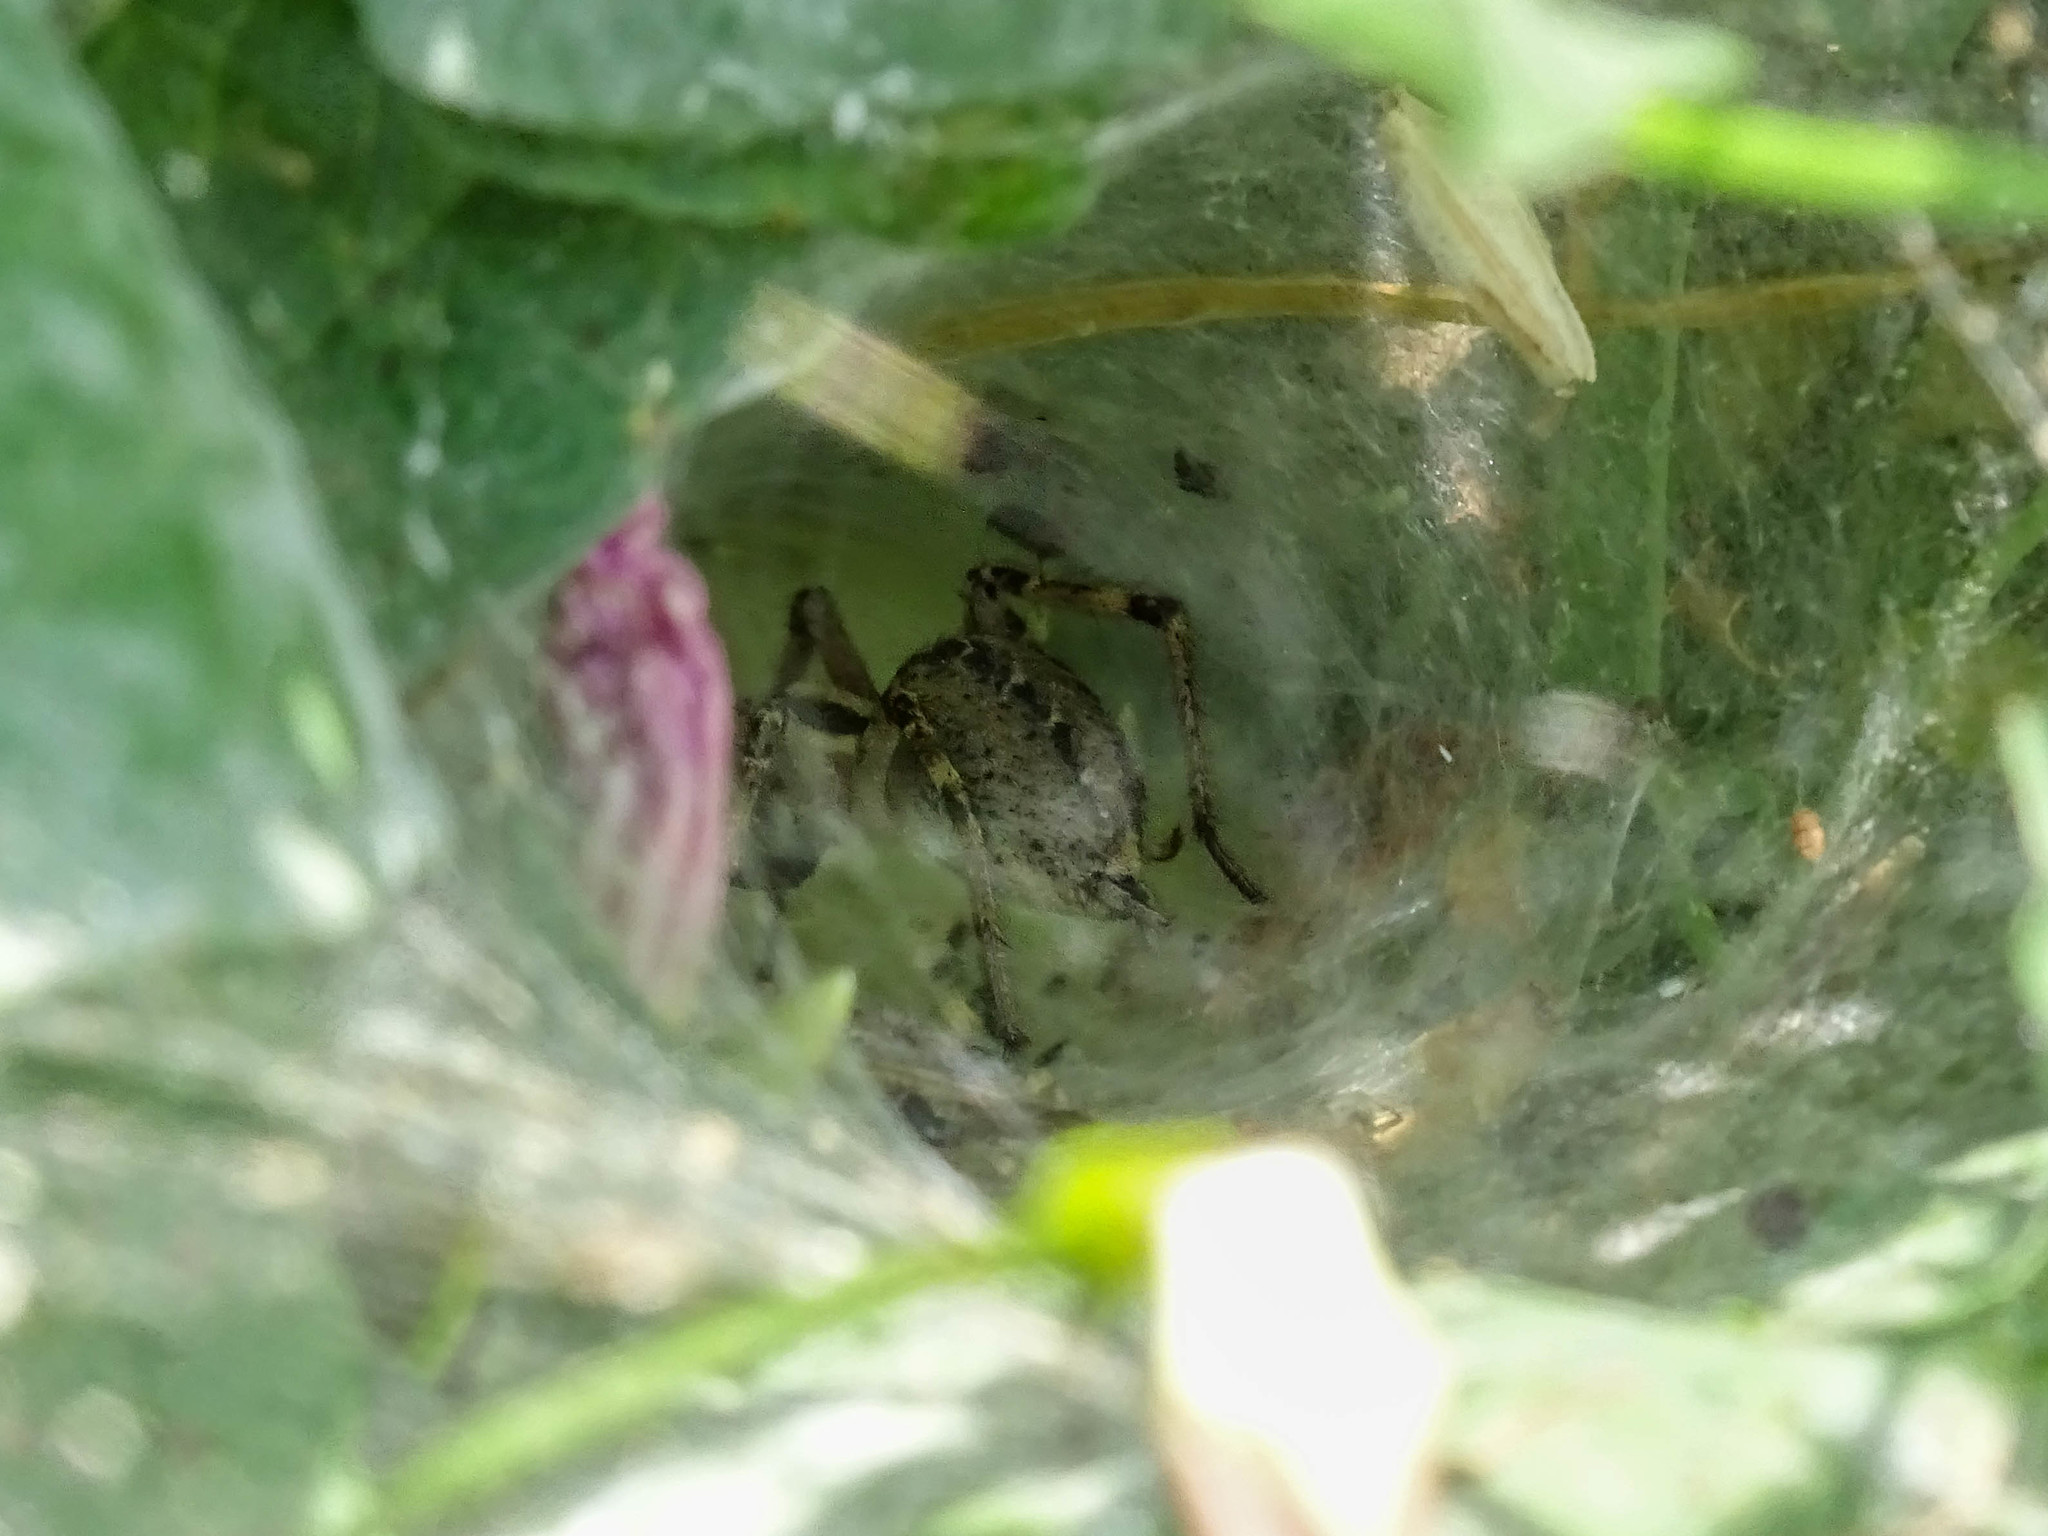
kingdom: Animalia
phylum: Arthropoda
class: Arachnida
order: Araneae
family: Agelenidae
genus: Agelena
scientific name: Agelena labyrinthica
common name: Labyrinth spider
